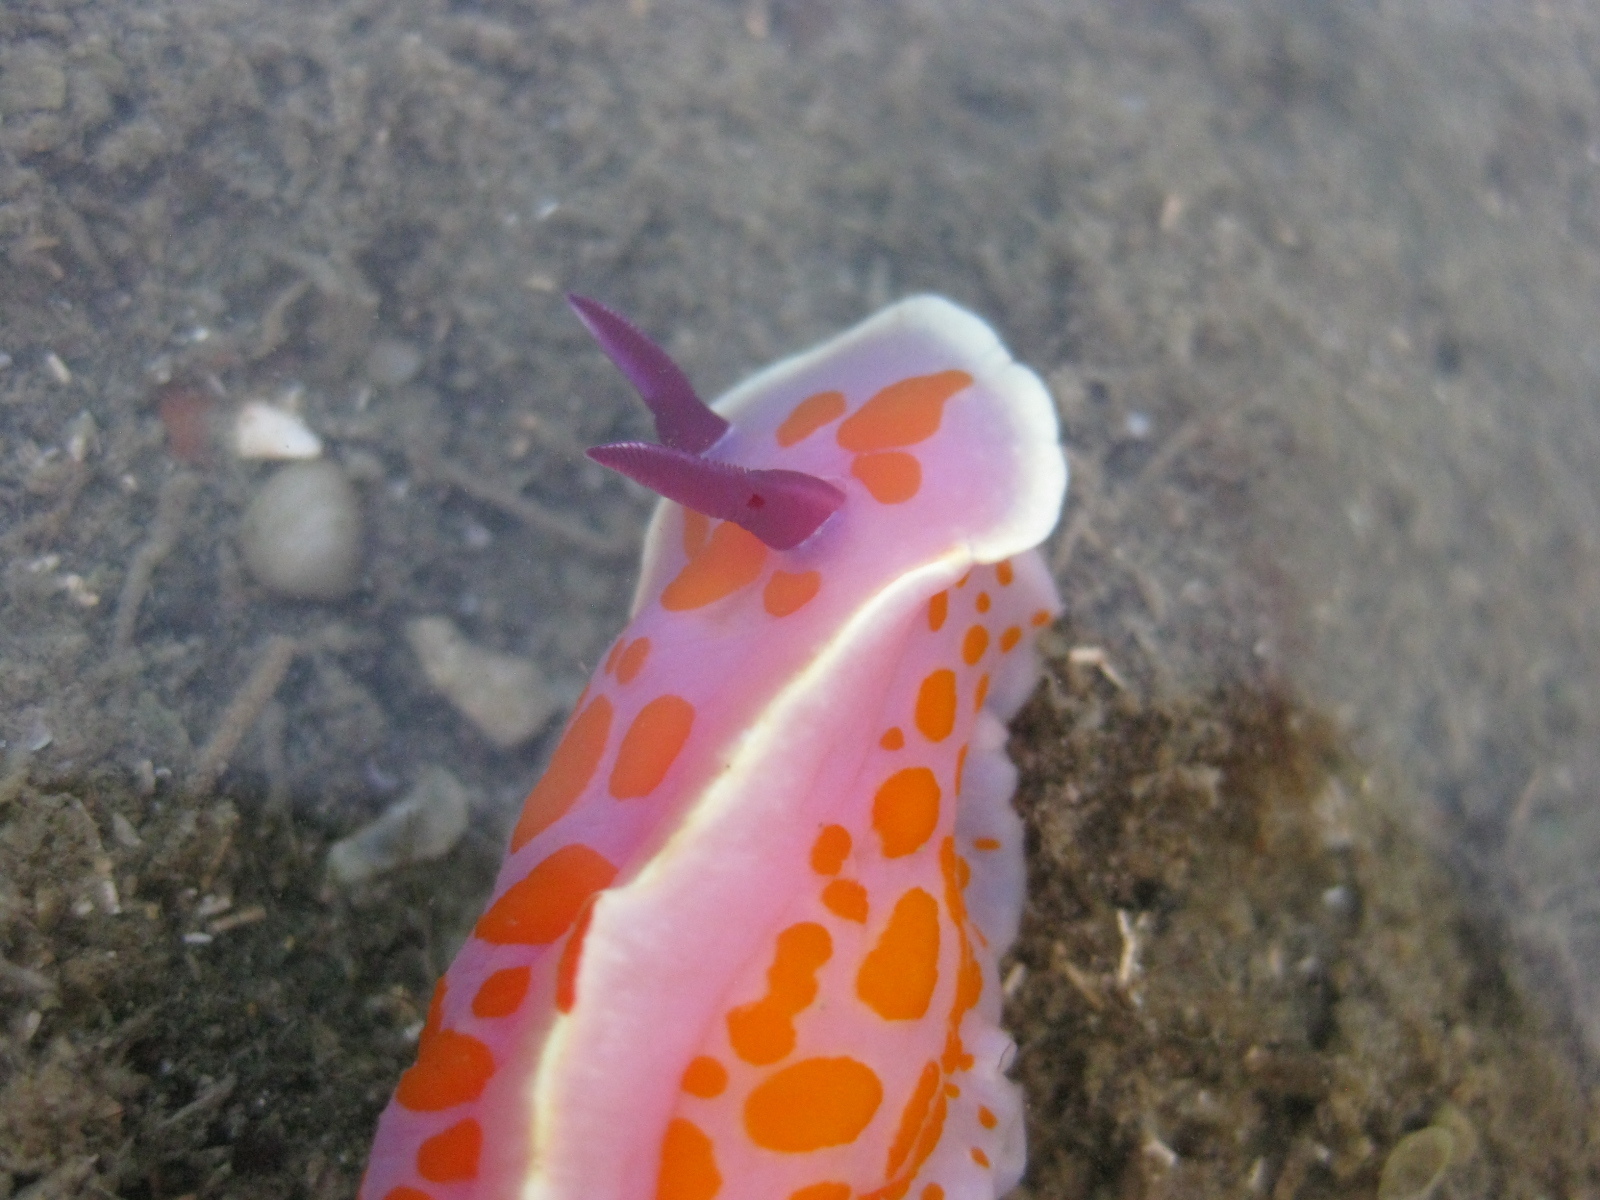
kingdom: Animalia
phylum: Mollusca
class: Gastropoda
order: Nudibranchia
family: Chromodorididae
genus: Ceratosoma
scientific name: Ceratosoma amoenum
